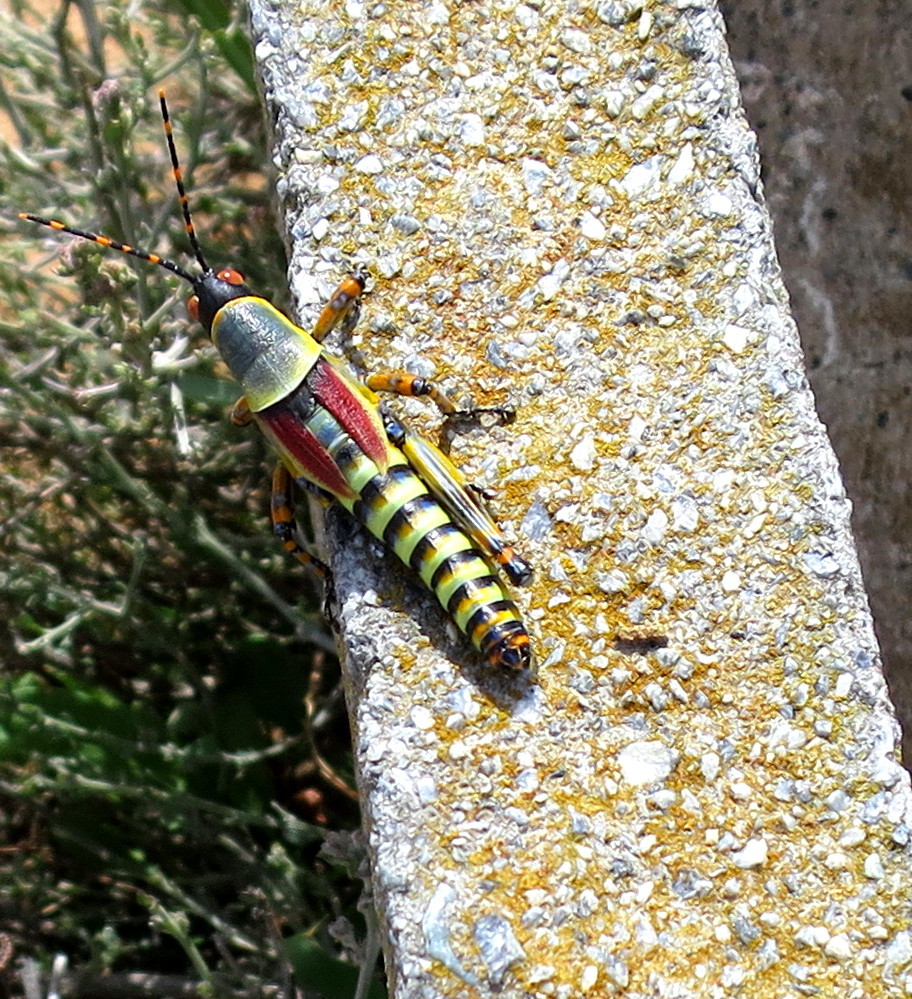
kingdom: Animalia
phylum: Arthropoda
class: Insecta
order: Orthoptera
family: Pyrgomorphidae
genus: Zonocerus
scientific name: Zonocerus elegans
